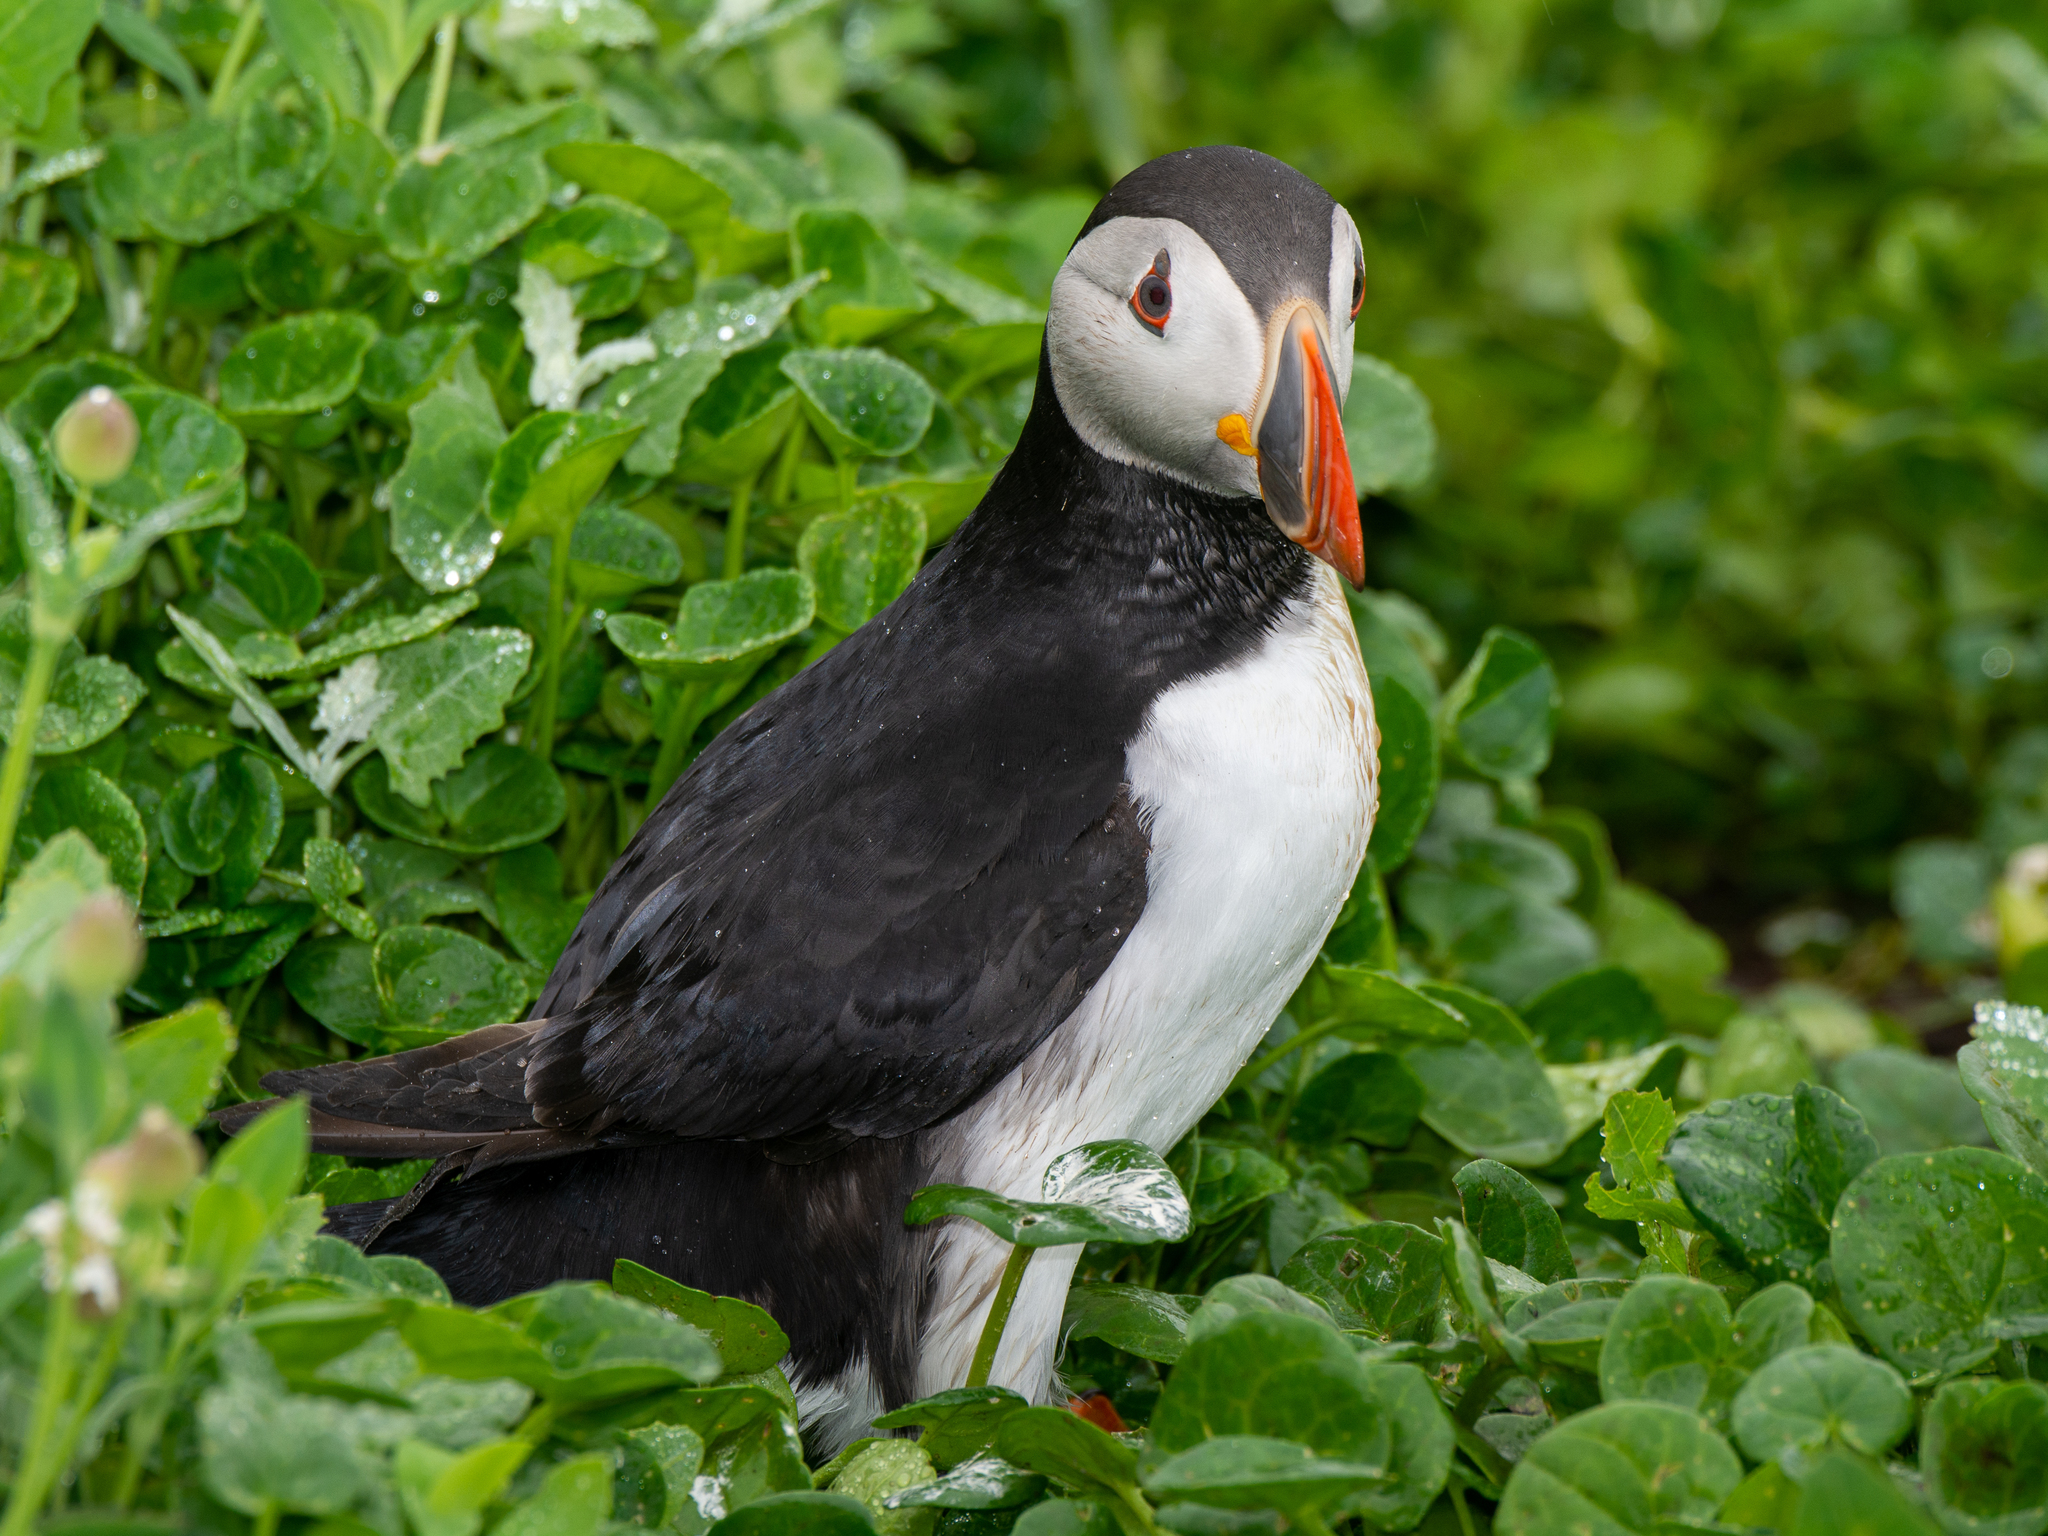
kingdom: Animalia
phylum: Chordata
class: Aves
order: Charadriiformes
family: Alcidae
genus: Fratercula
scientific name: Fratercula arctica
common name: Atlantic puffin
